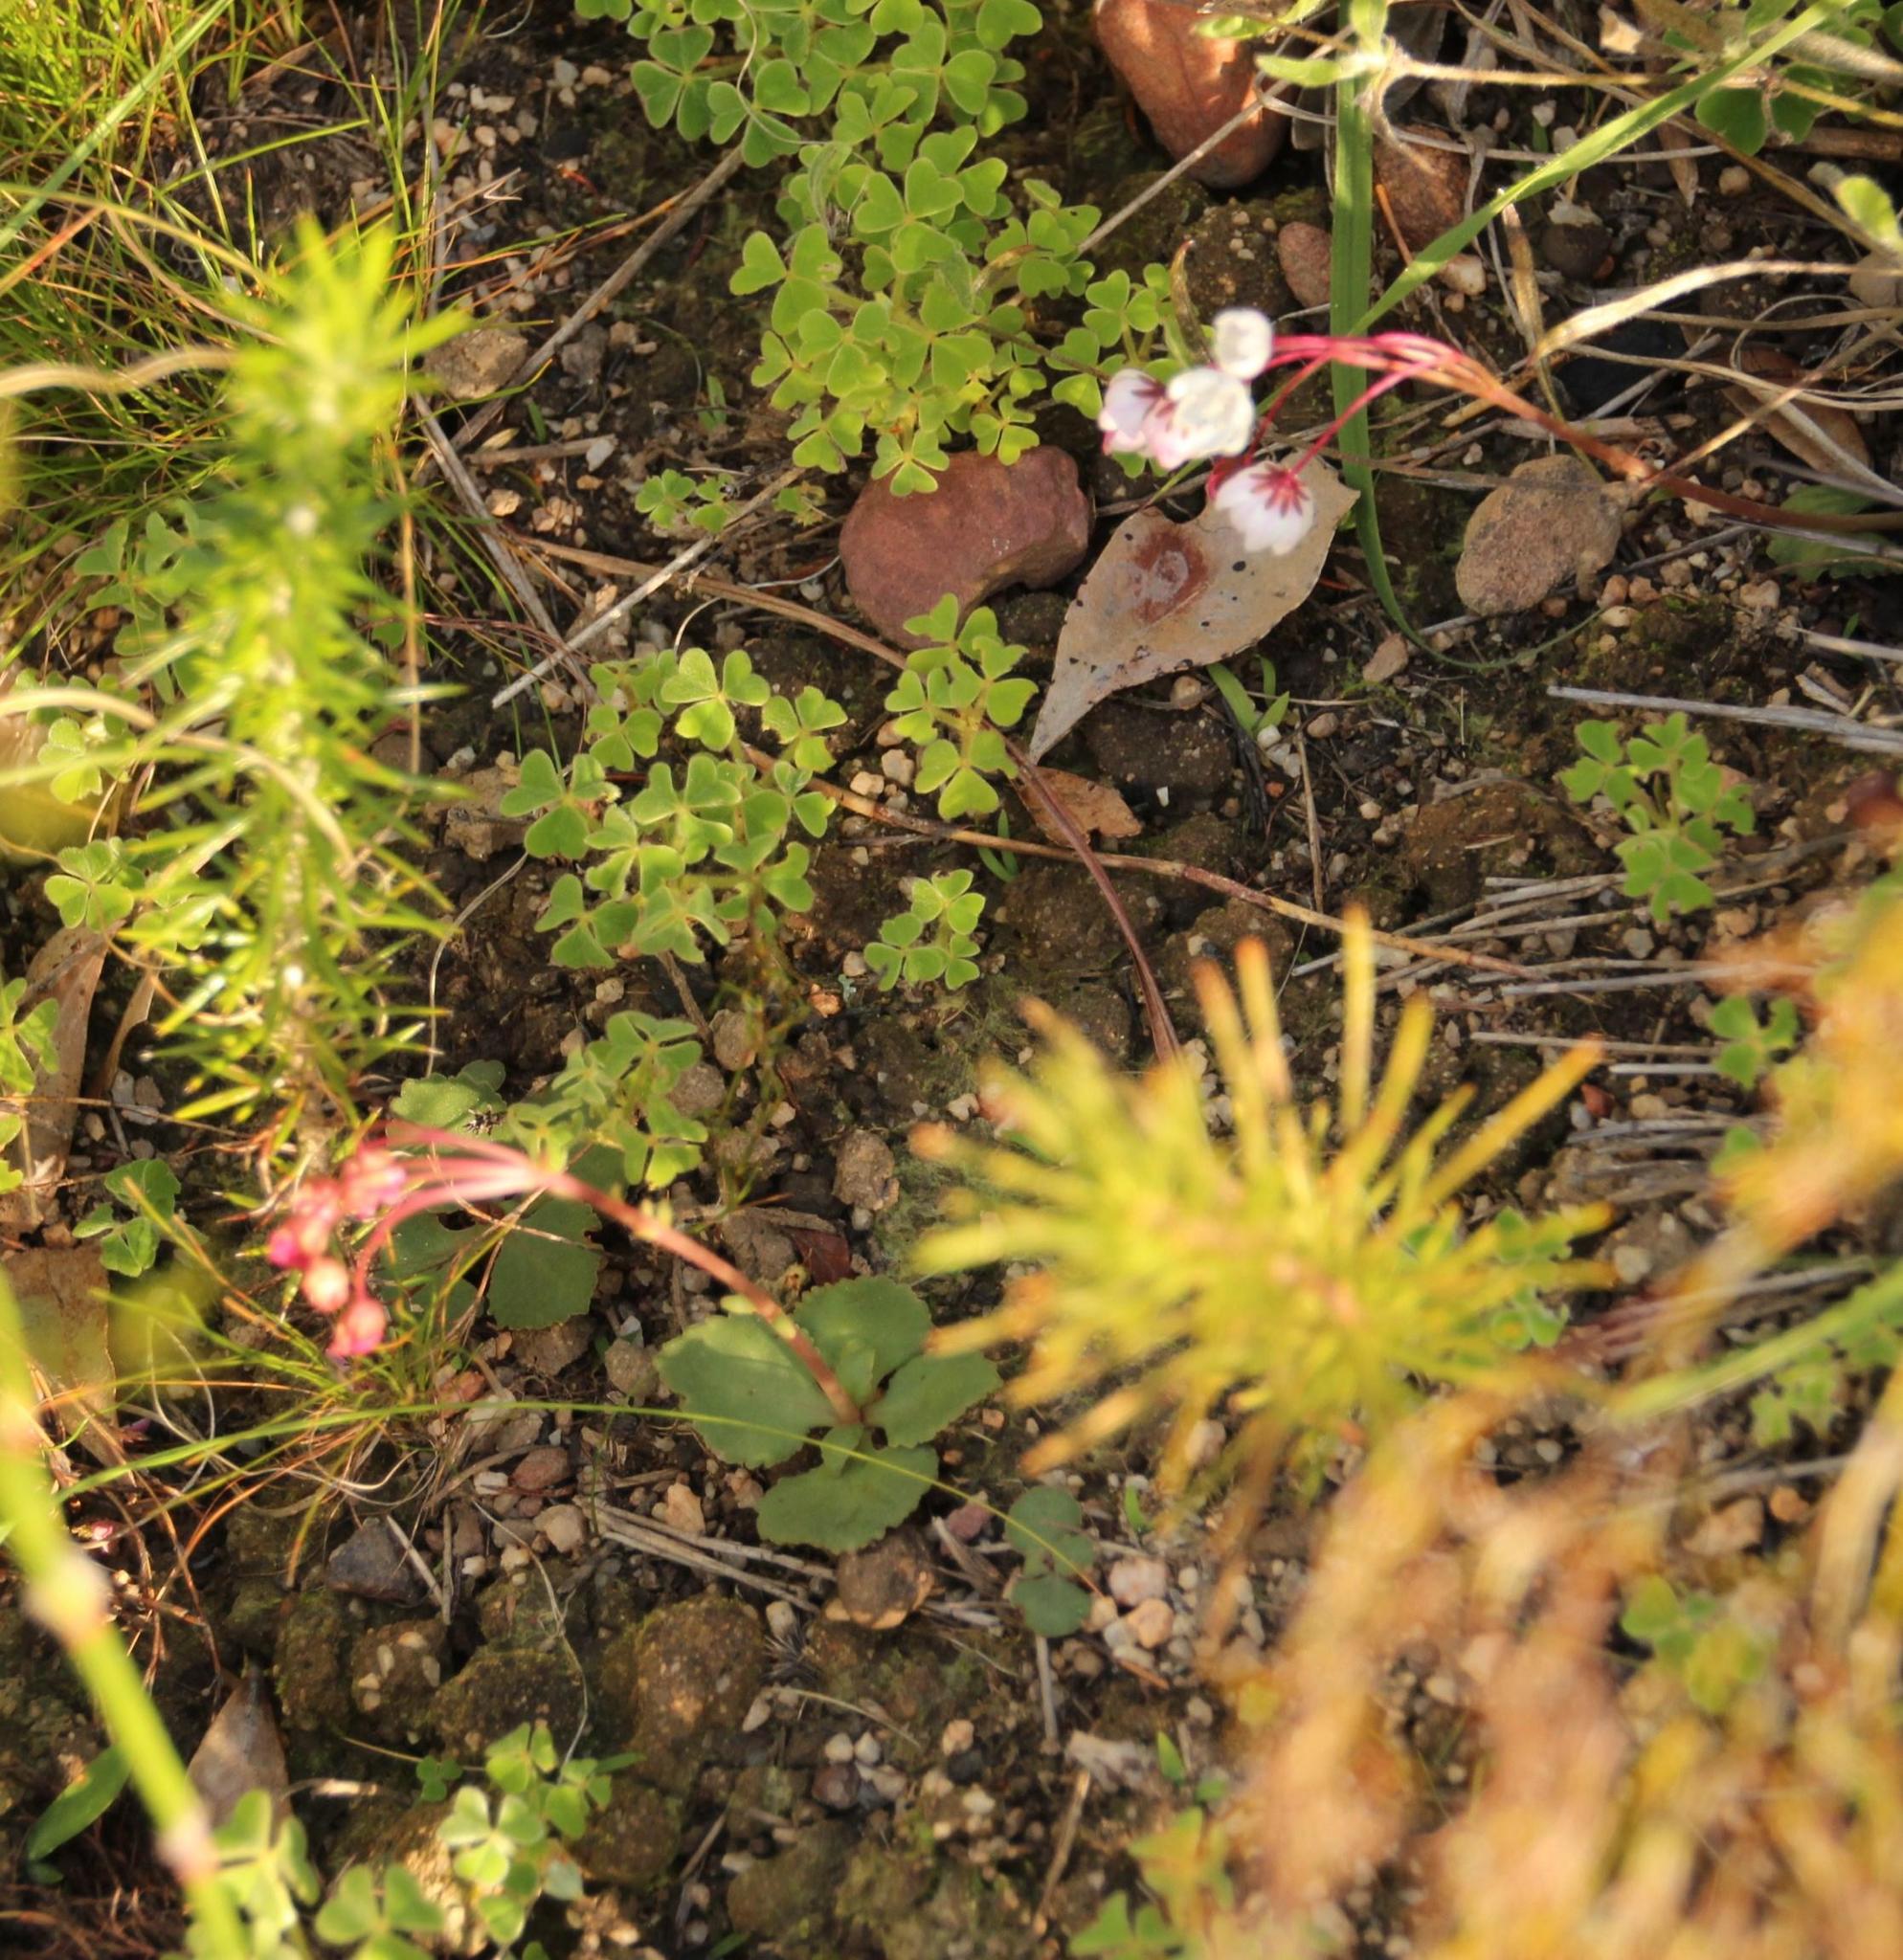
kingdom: Plantae
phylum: Tracheophyta
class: Magnoliopsida
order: Saxifragales
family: Crassulaceae
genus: Crassula
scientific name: Crassula capensis
